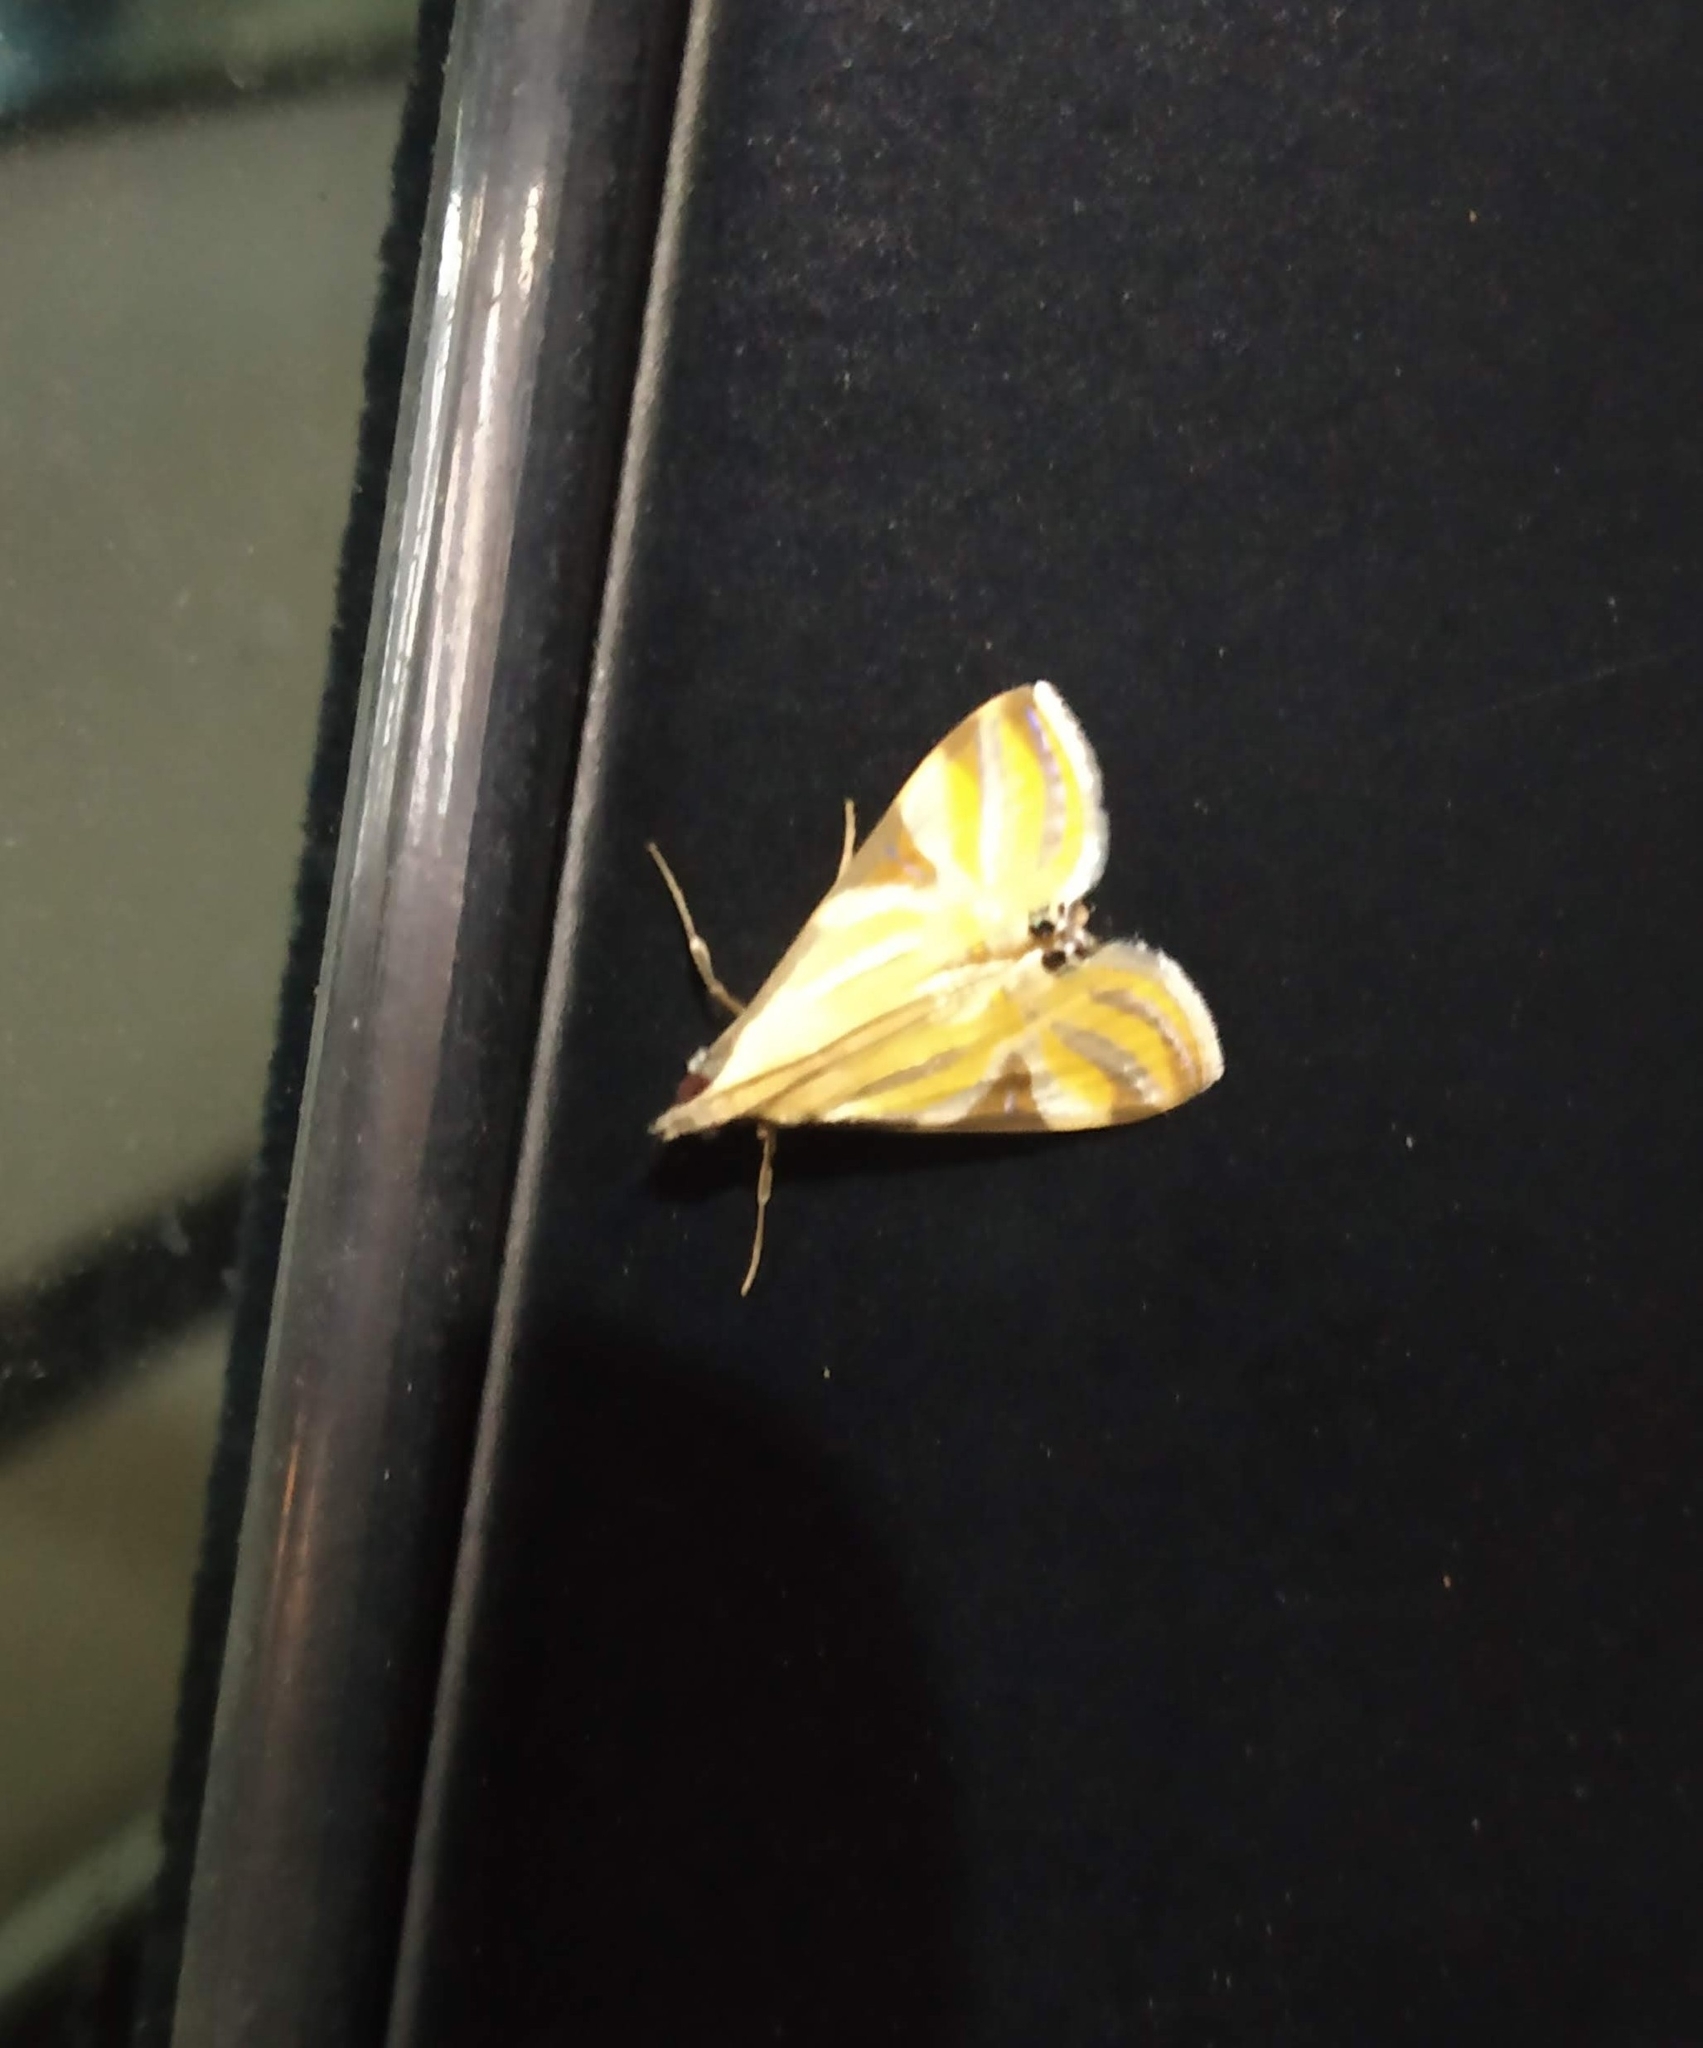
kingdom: Animalia
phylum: Arthropoda
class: Insecta
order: Lepidoptera
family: Crambidae
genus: Talanga
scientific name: Talanga sexpunctalis
